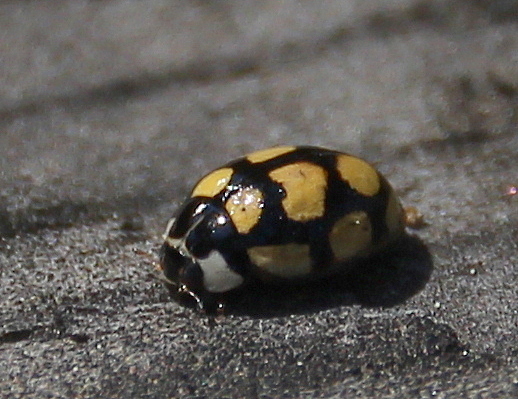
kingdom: Animalia
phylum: Arthropoda
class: Insecta
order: Coleoptera
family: Coccinellidae
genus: Oenopia
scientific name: Oenopia lyncea
